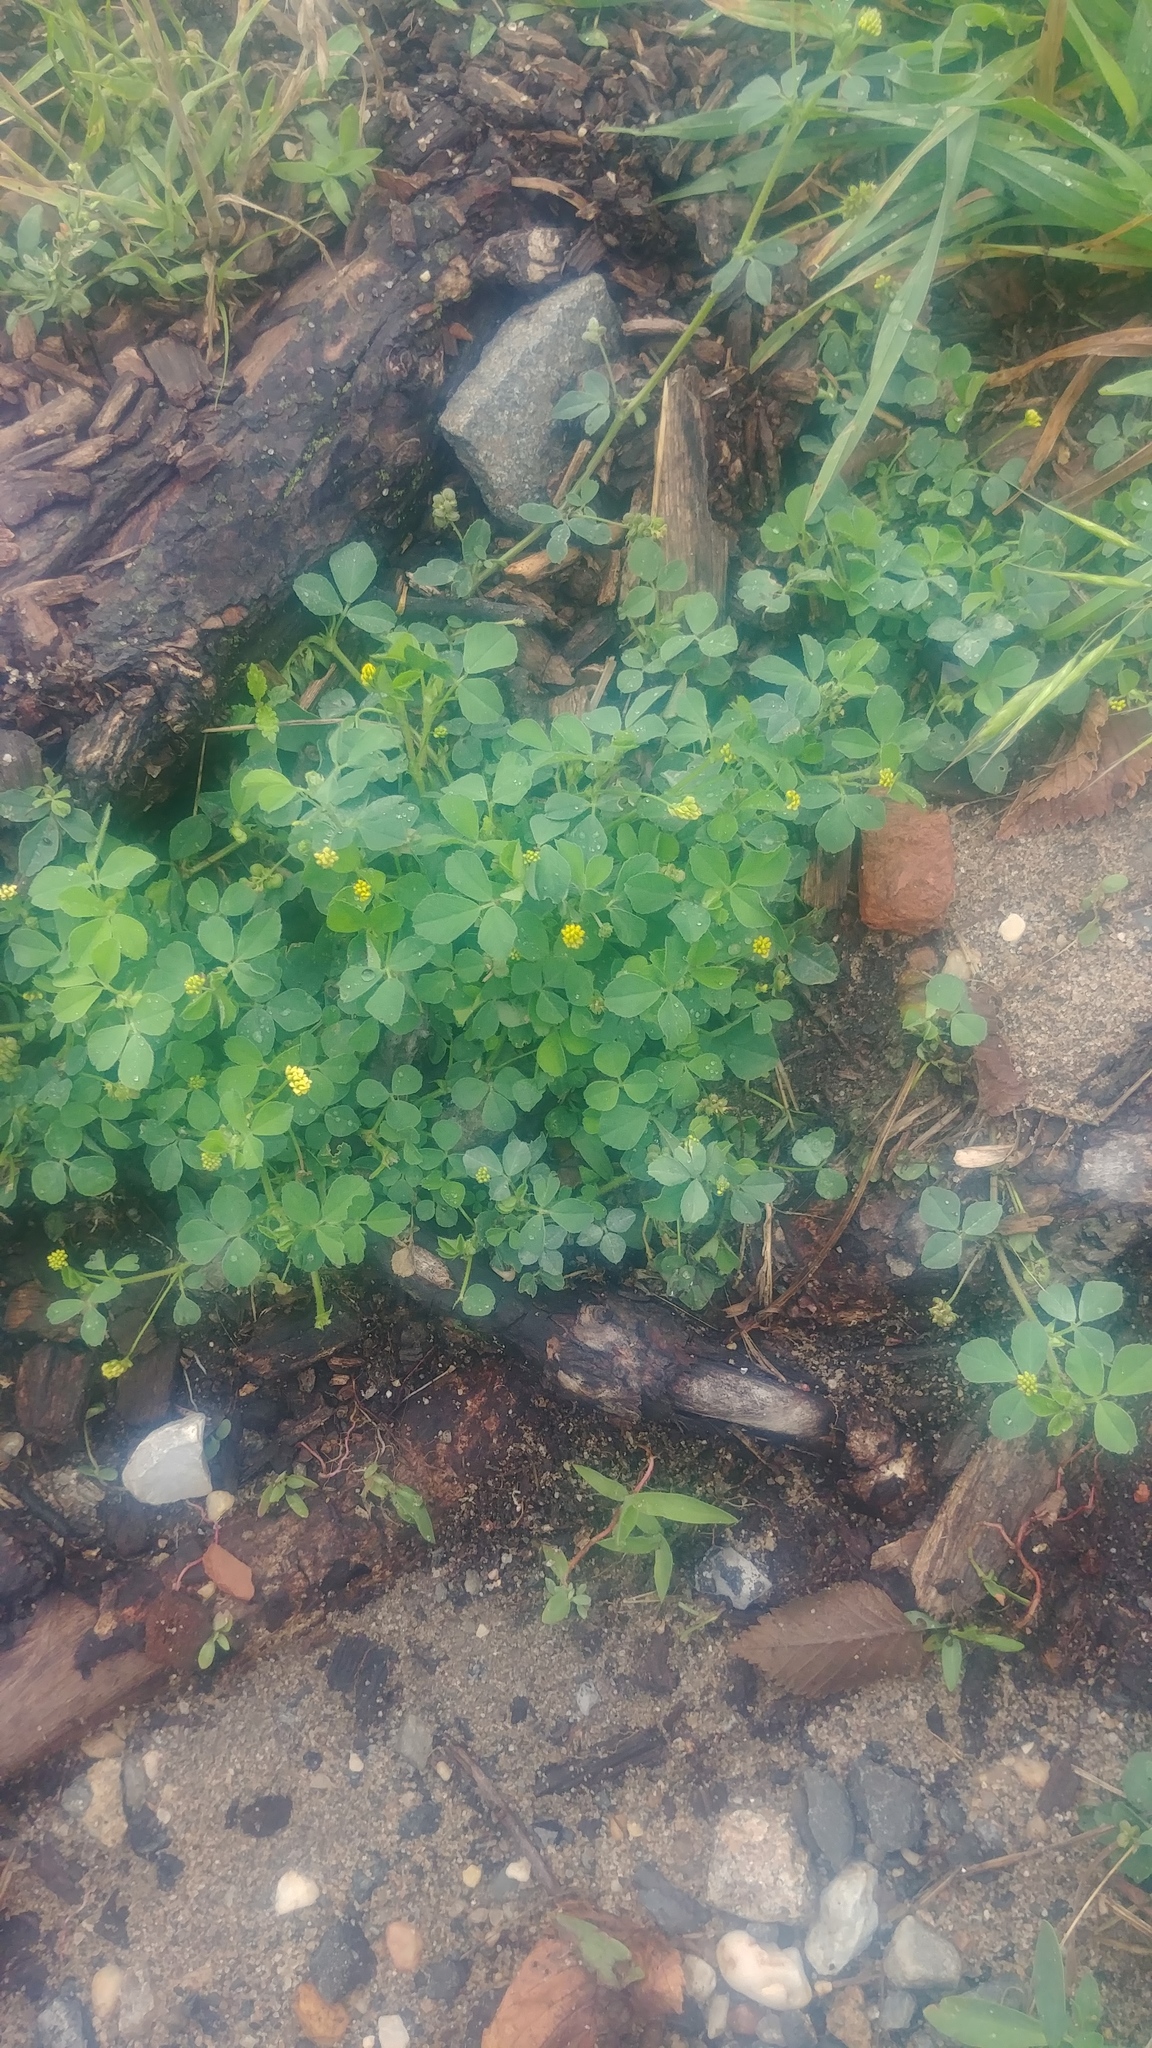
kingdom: Plantae
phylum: Tracheophyta
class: Magnoliopsida
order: Fabales
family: Fabaceae
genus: Medicago
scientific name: Medicago lupulina
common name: Black medick
